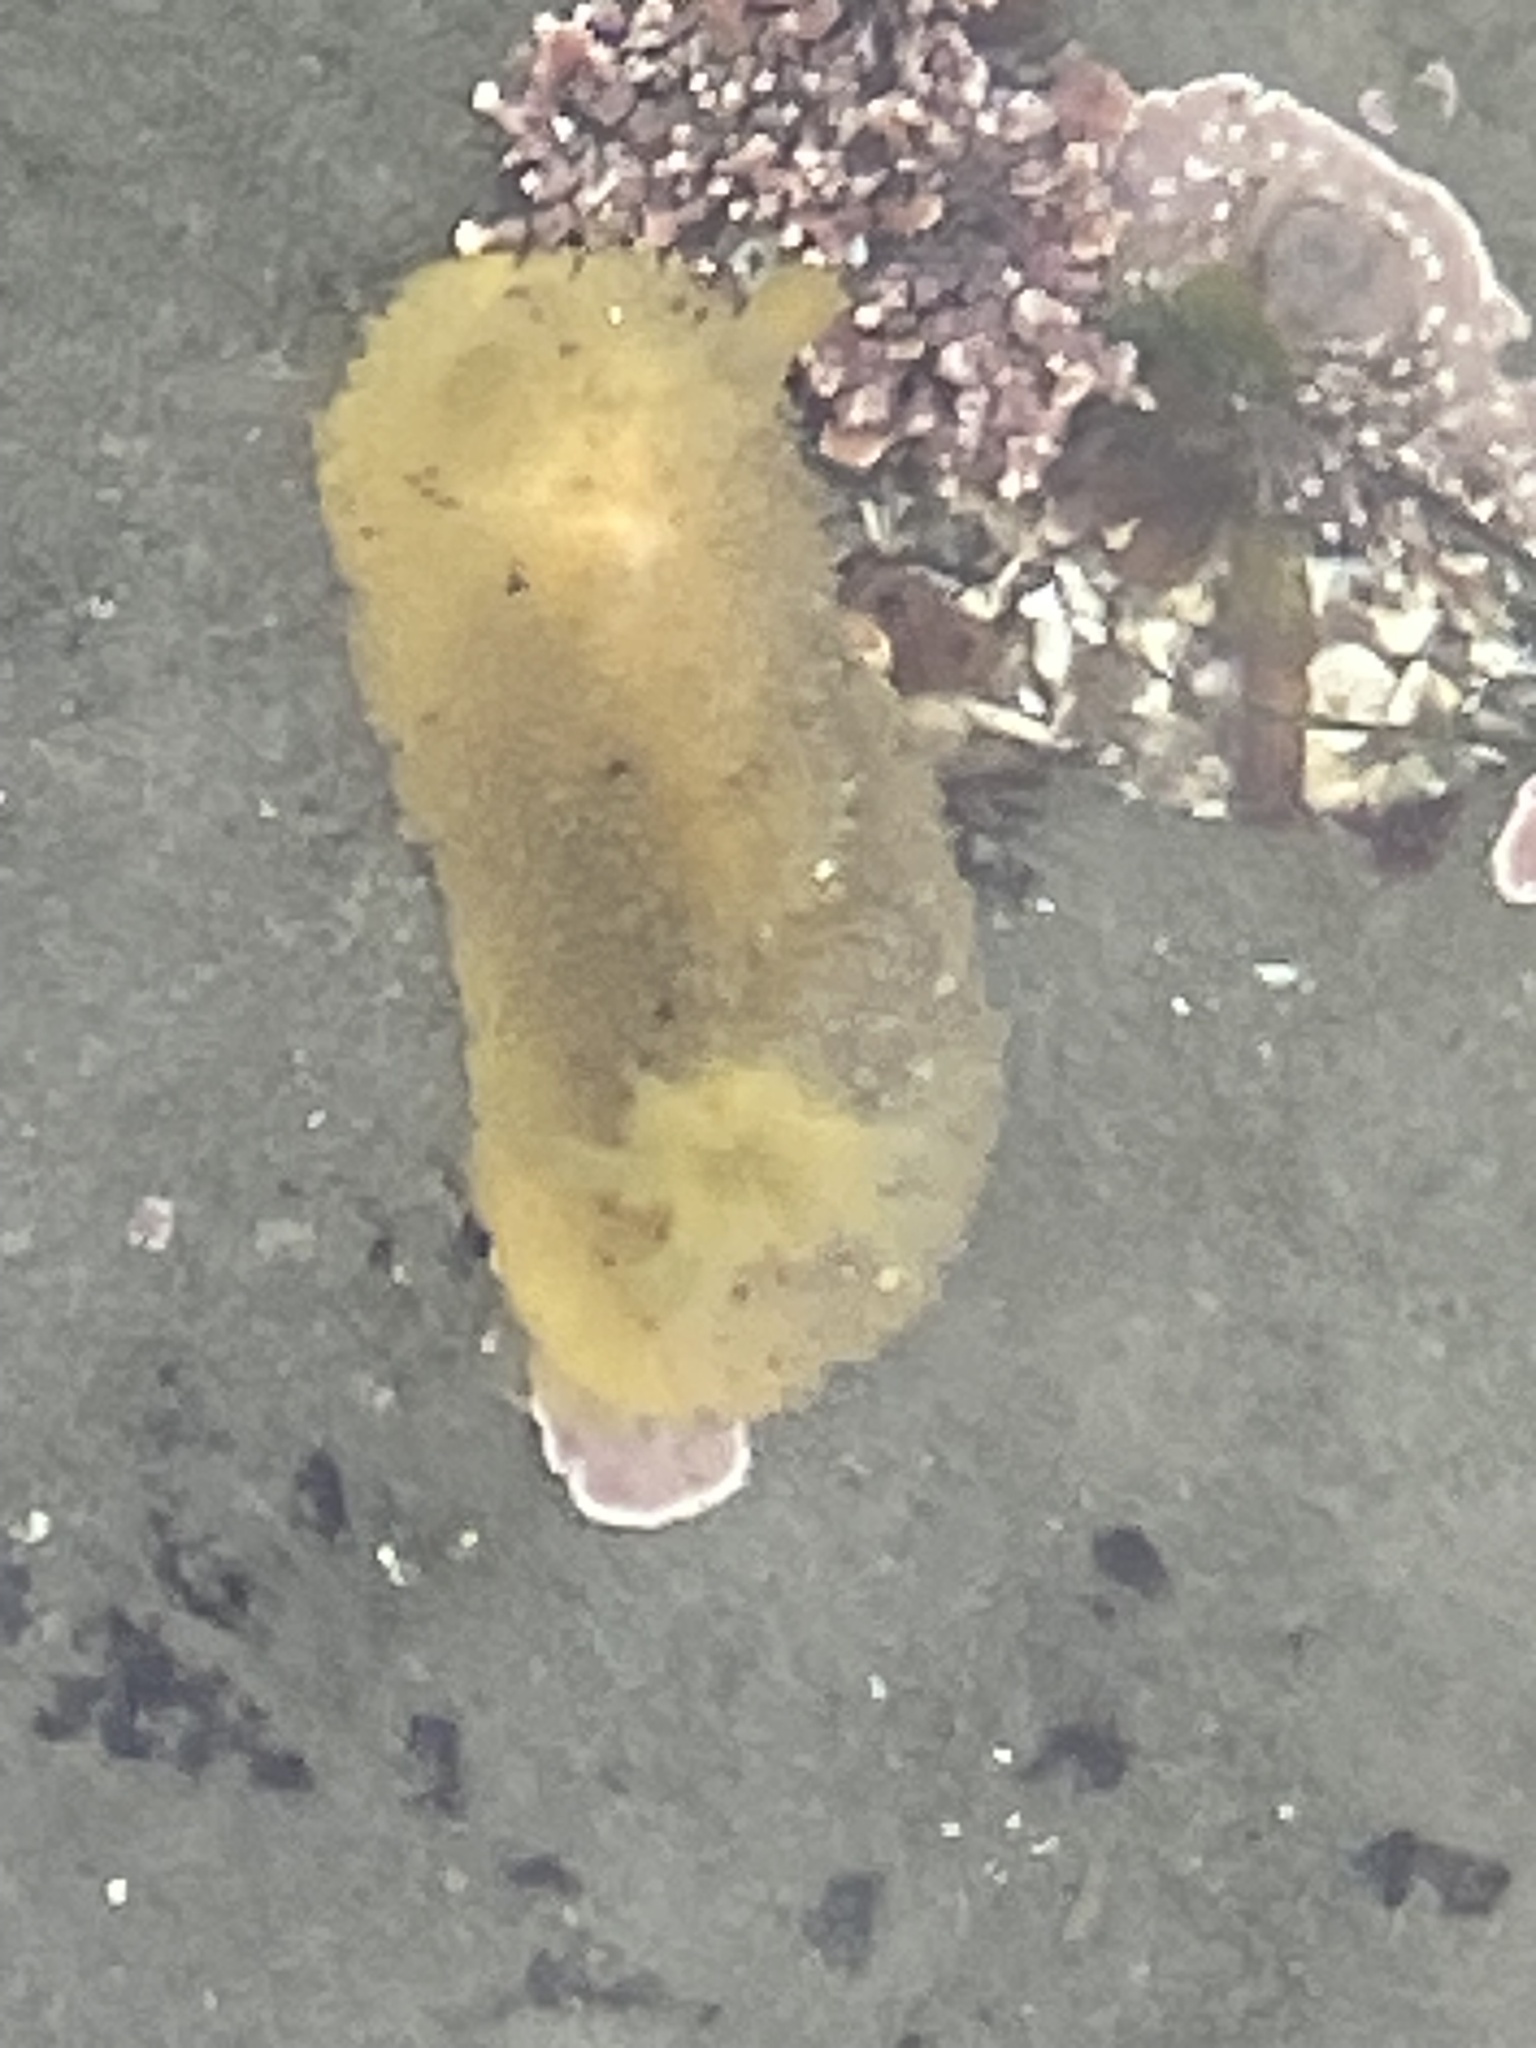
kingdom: Animalia
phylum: Mollusca
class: Gastropoda
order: Nudibranchia
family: Dorididae
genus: Doris
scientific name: Doris montereyensis
